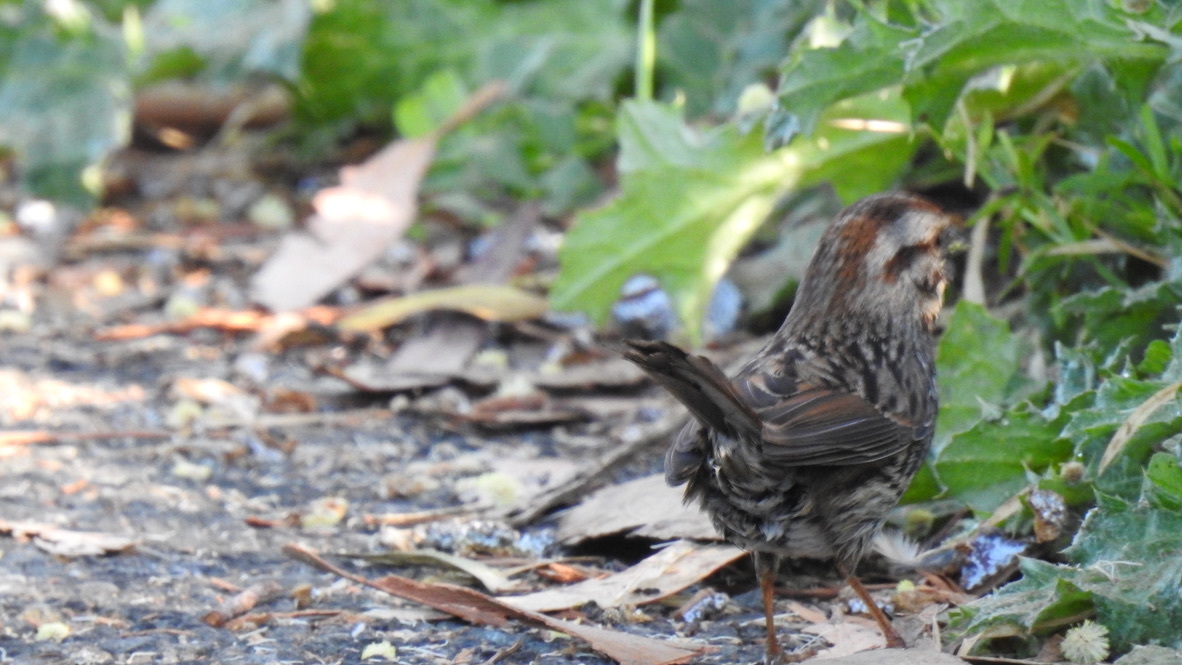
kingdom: Animalia
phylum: Chordata
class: Aves
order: Passeriformes
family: Passerellidae
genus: Melospiza
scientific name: Melospiza melodia
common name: Song sparrow
